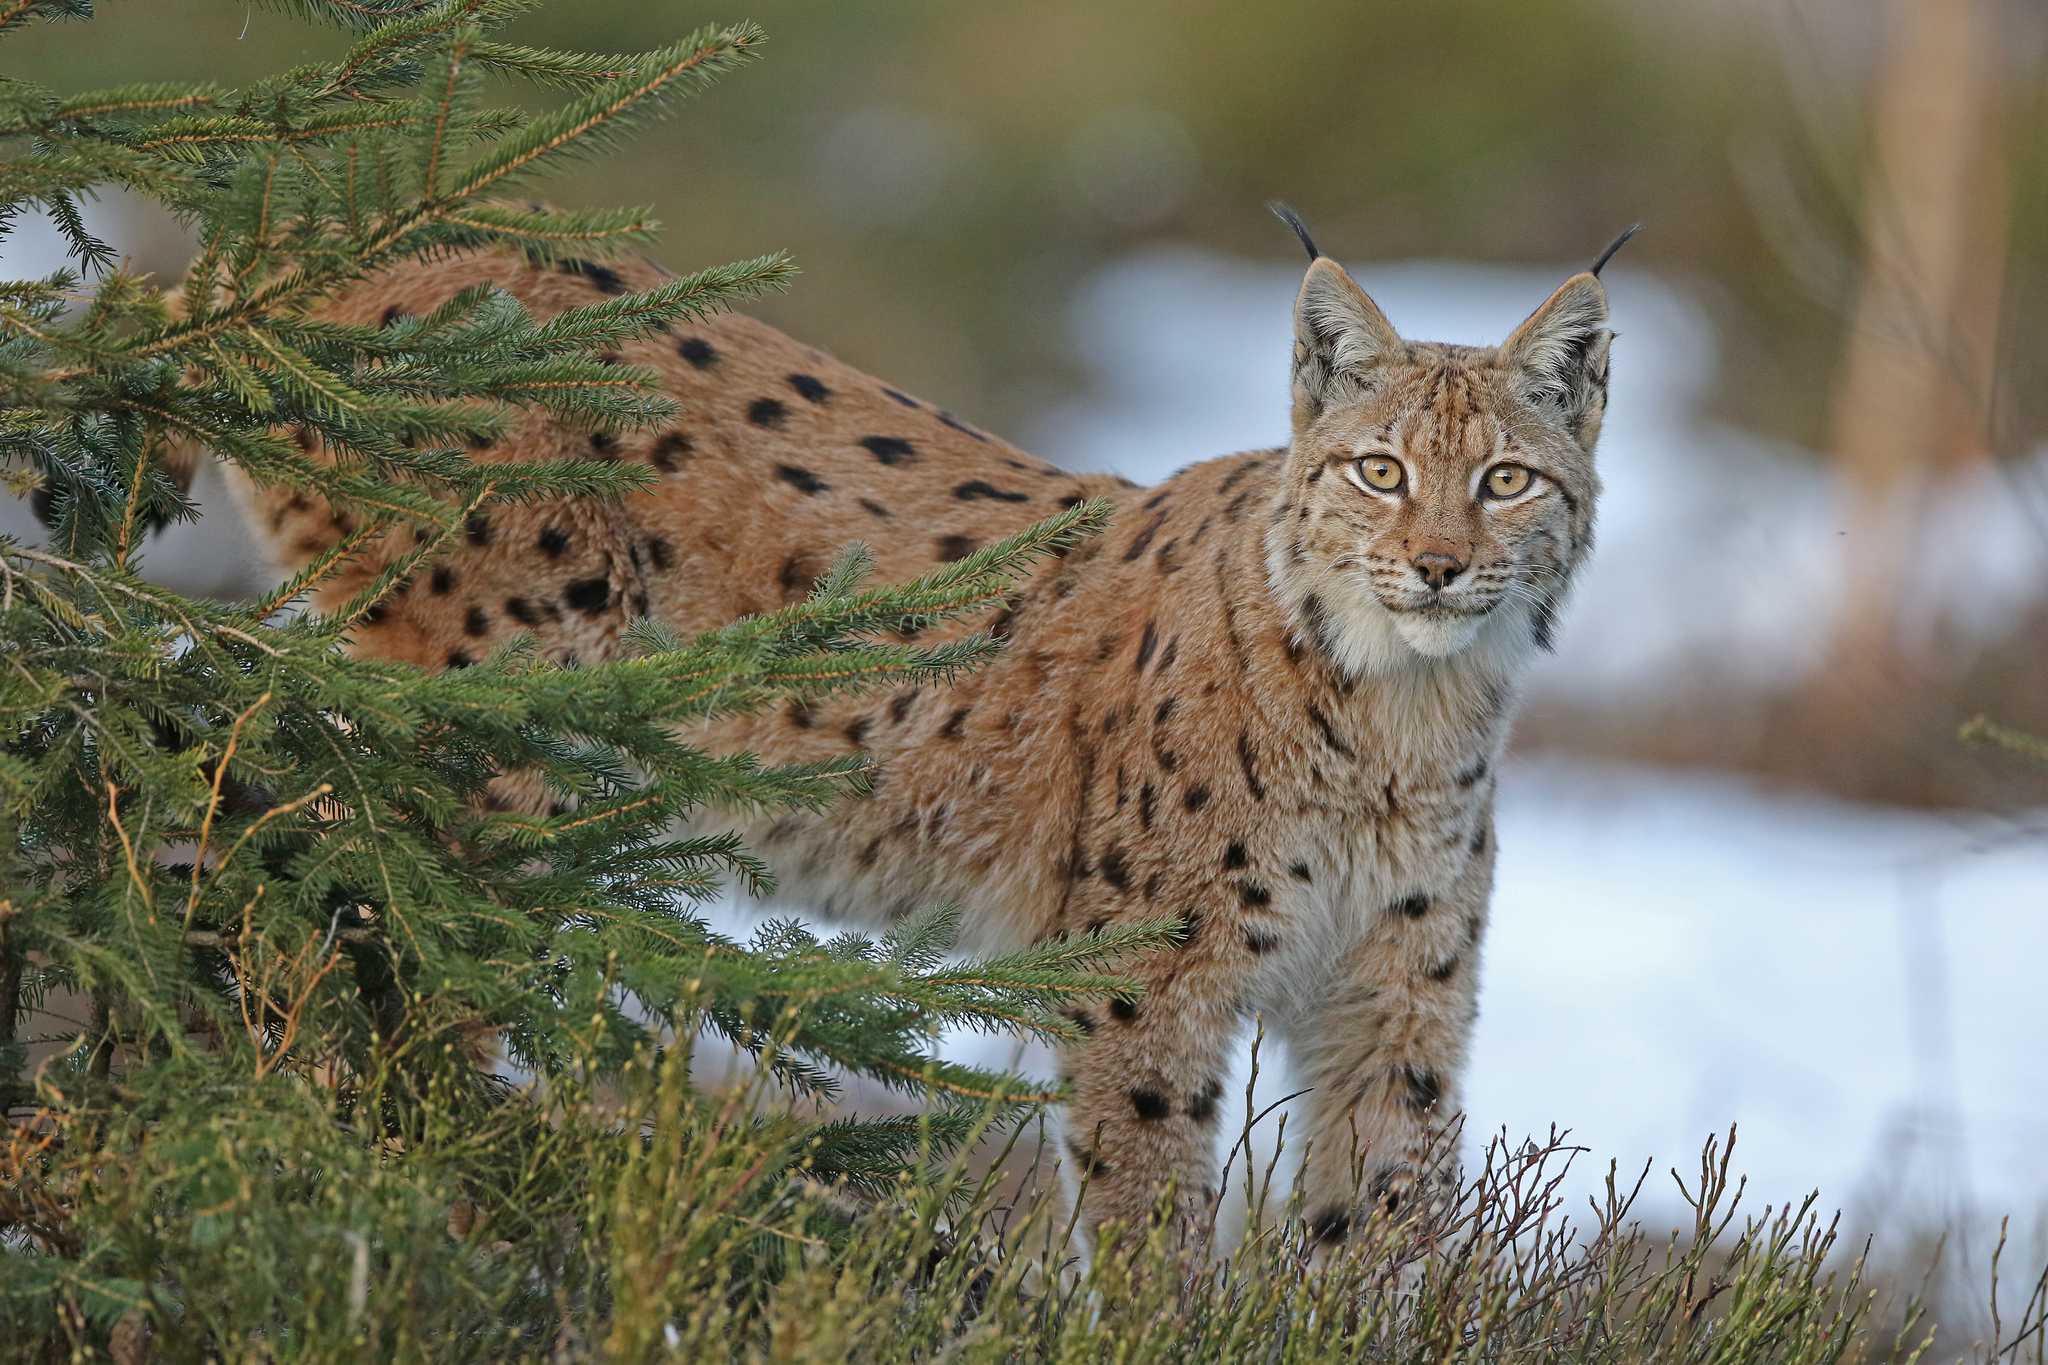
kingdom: Animalia
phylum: Chordata
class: Mammalia
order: Carnivora
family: Felidae
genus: Lynx
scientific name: Lynx lynx
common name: Eurasian lynx
